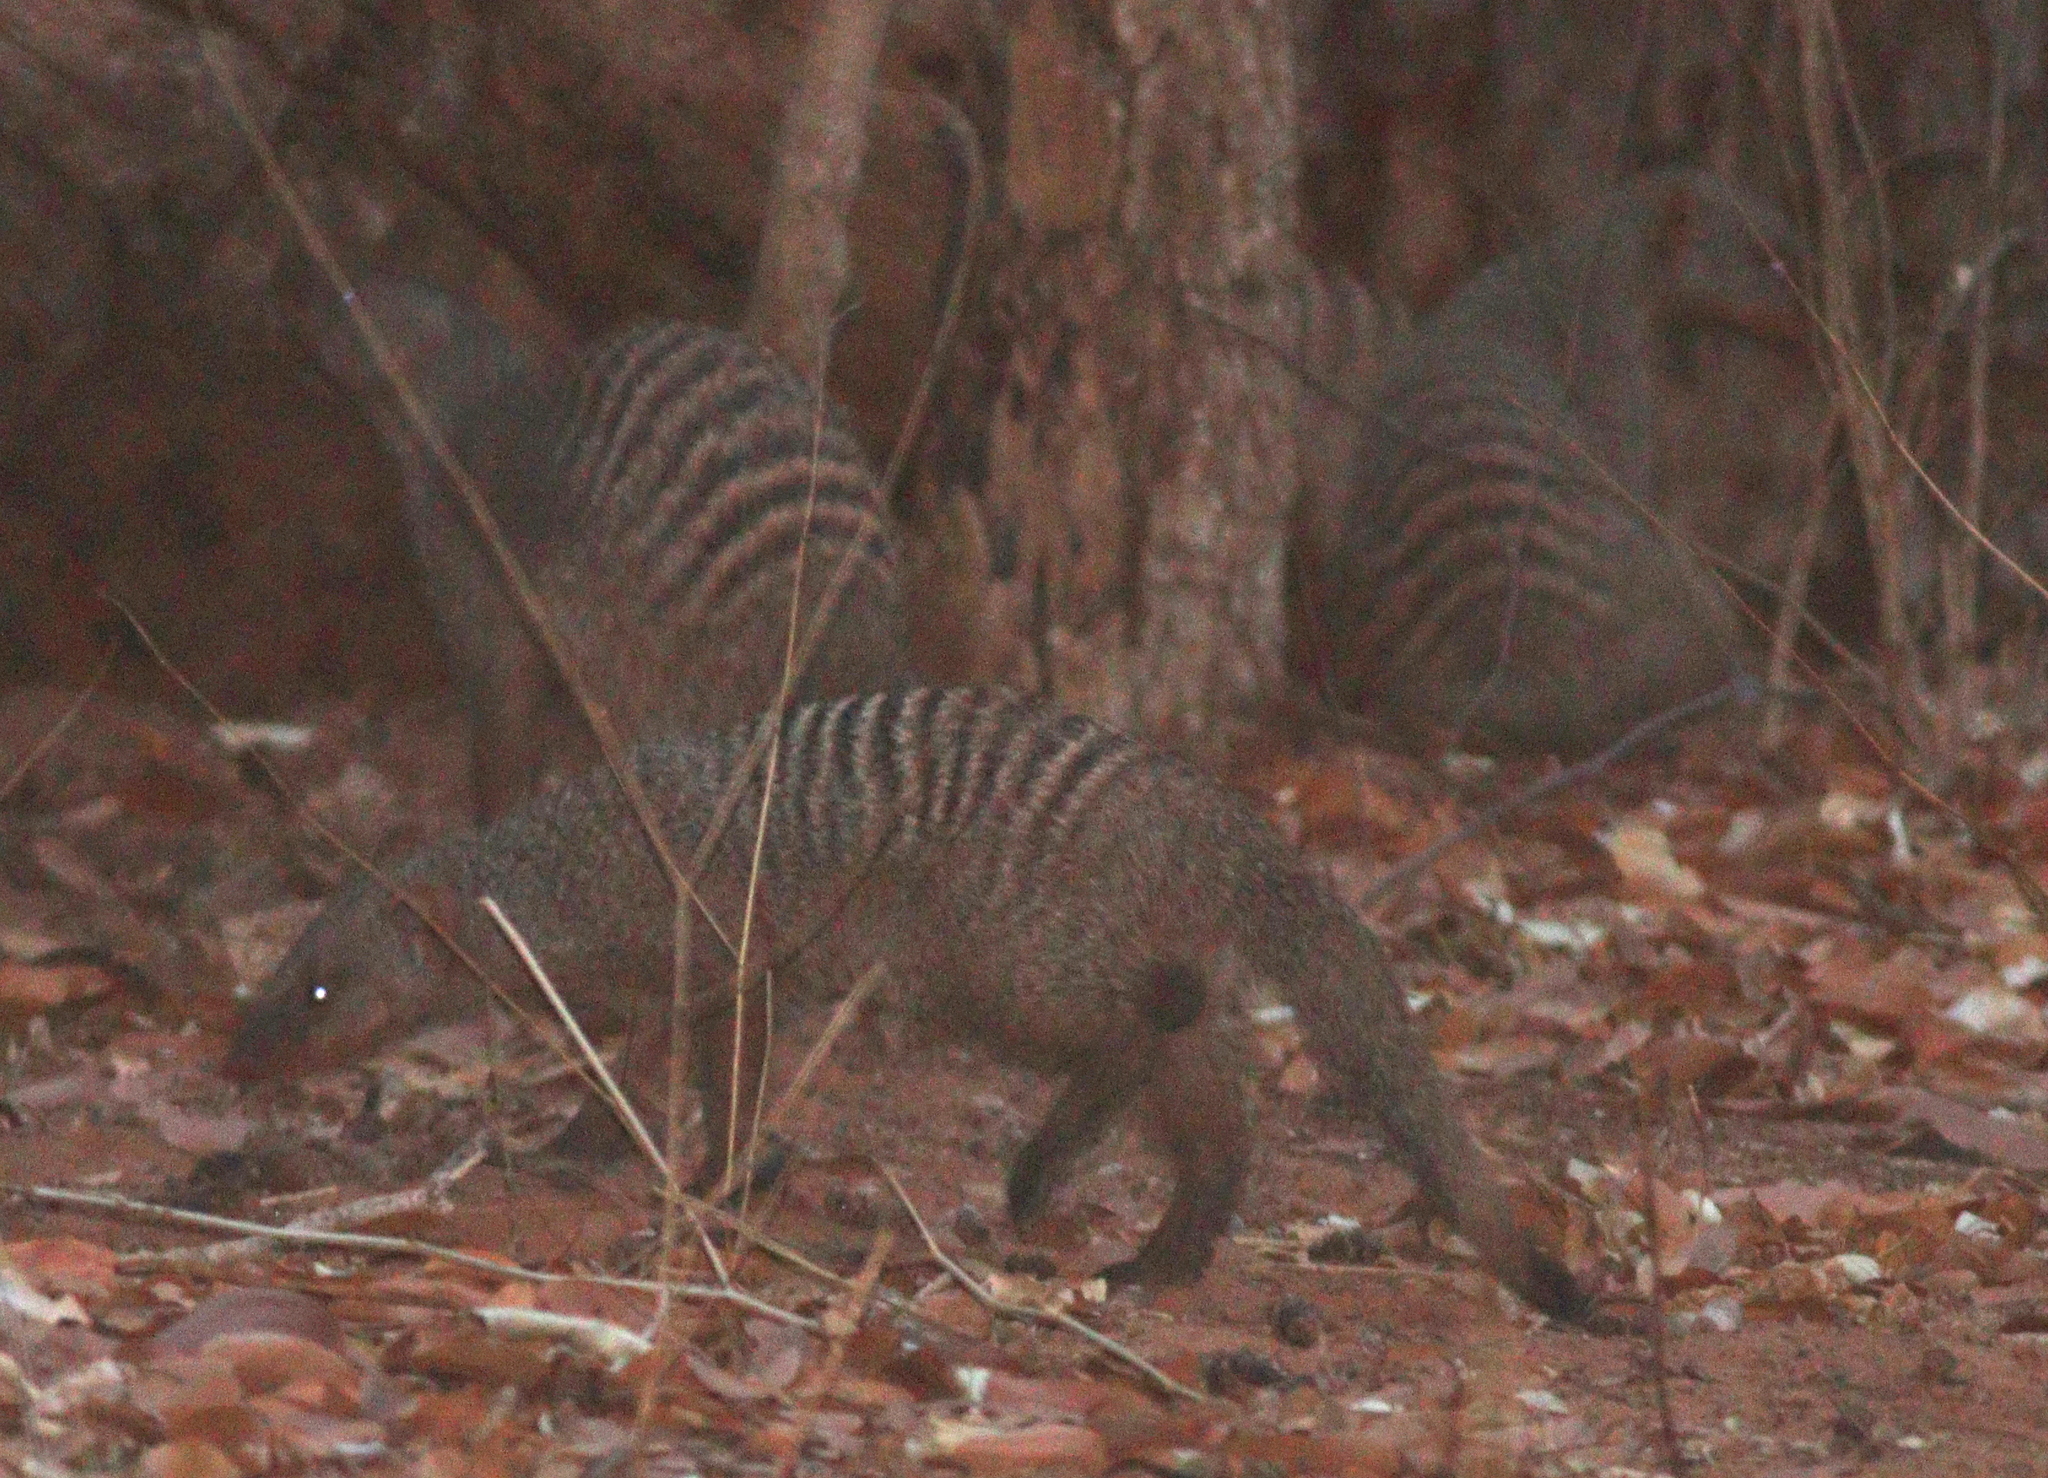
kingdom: Animalia
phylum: Chordata
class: Mammalia
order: Carnivora
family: Herpestidae
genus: Mungos
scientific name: Mungos mungo
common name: Banded mongoose
